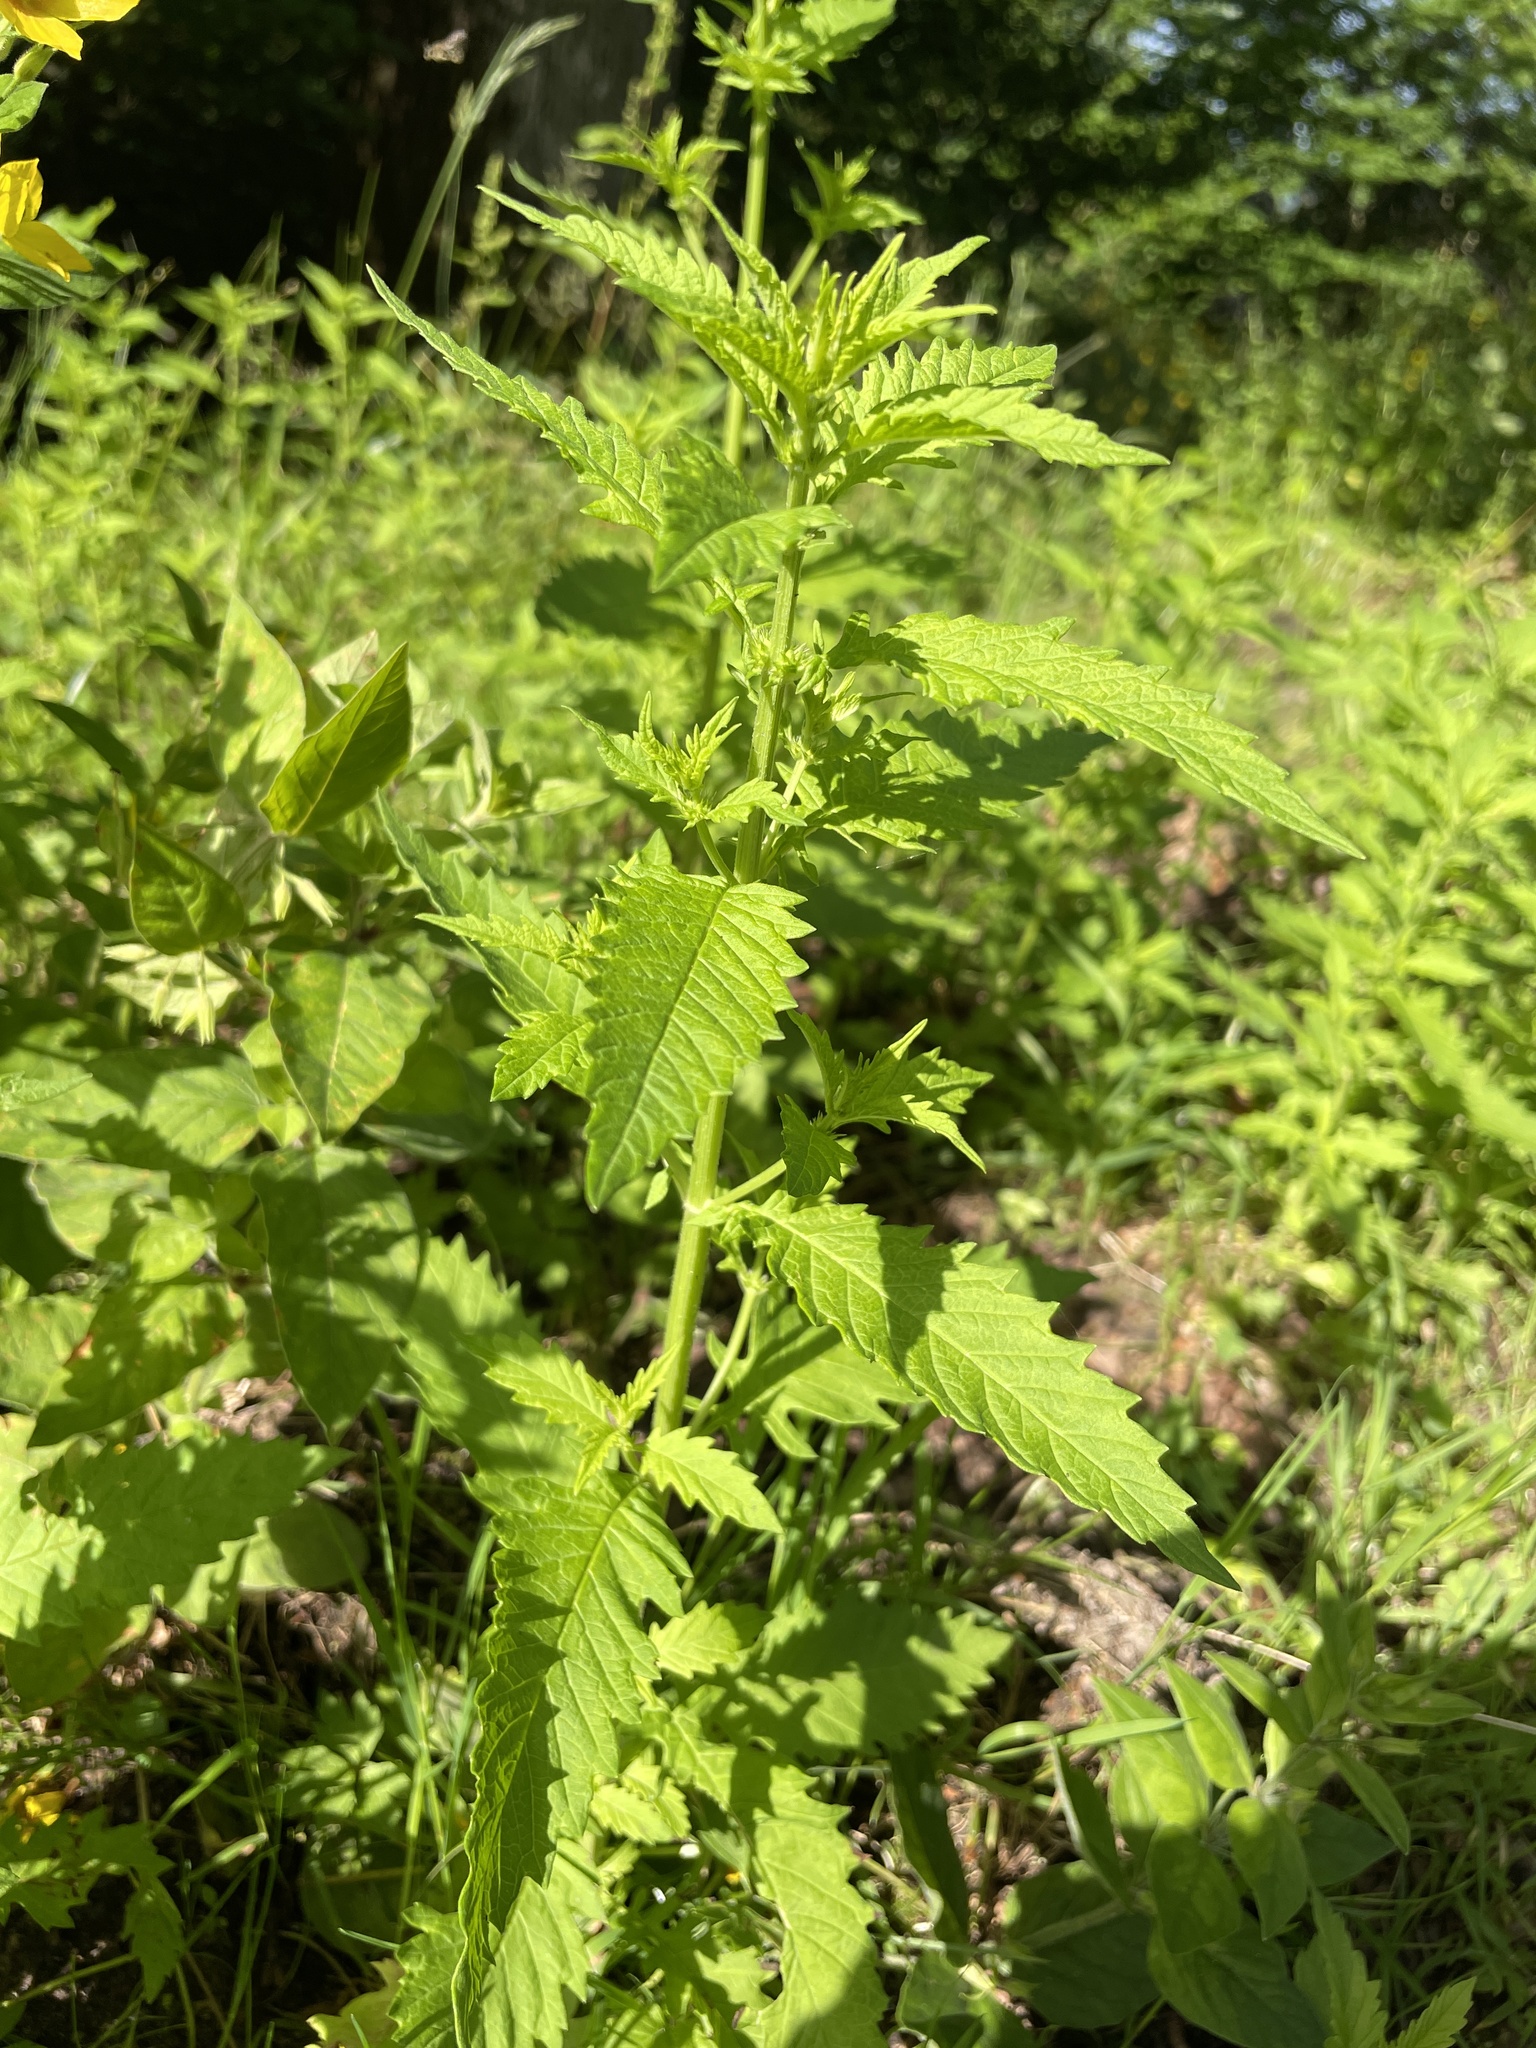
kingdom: Plantae
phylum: Tracheophyta
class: Magnoliopsida
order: Lamiales
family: Lamiaceae
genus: Lycopus
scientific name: Lycopus europaeus
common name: European bugleweed
